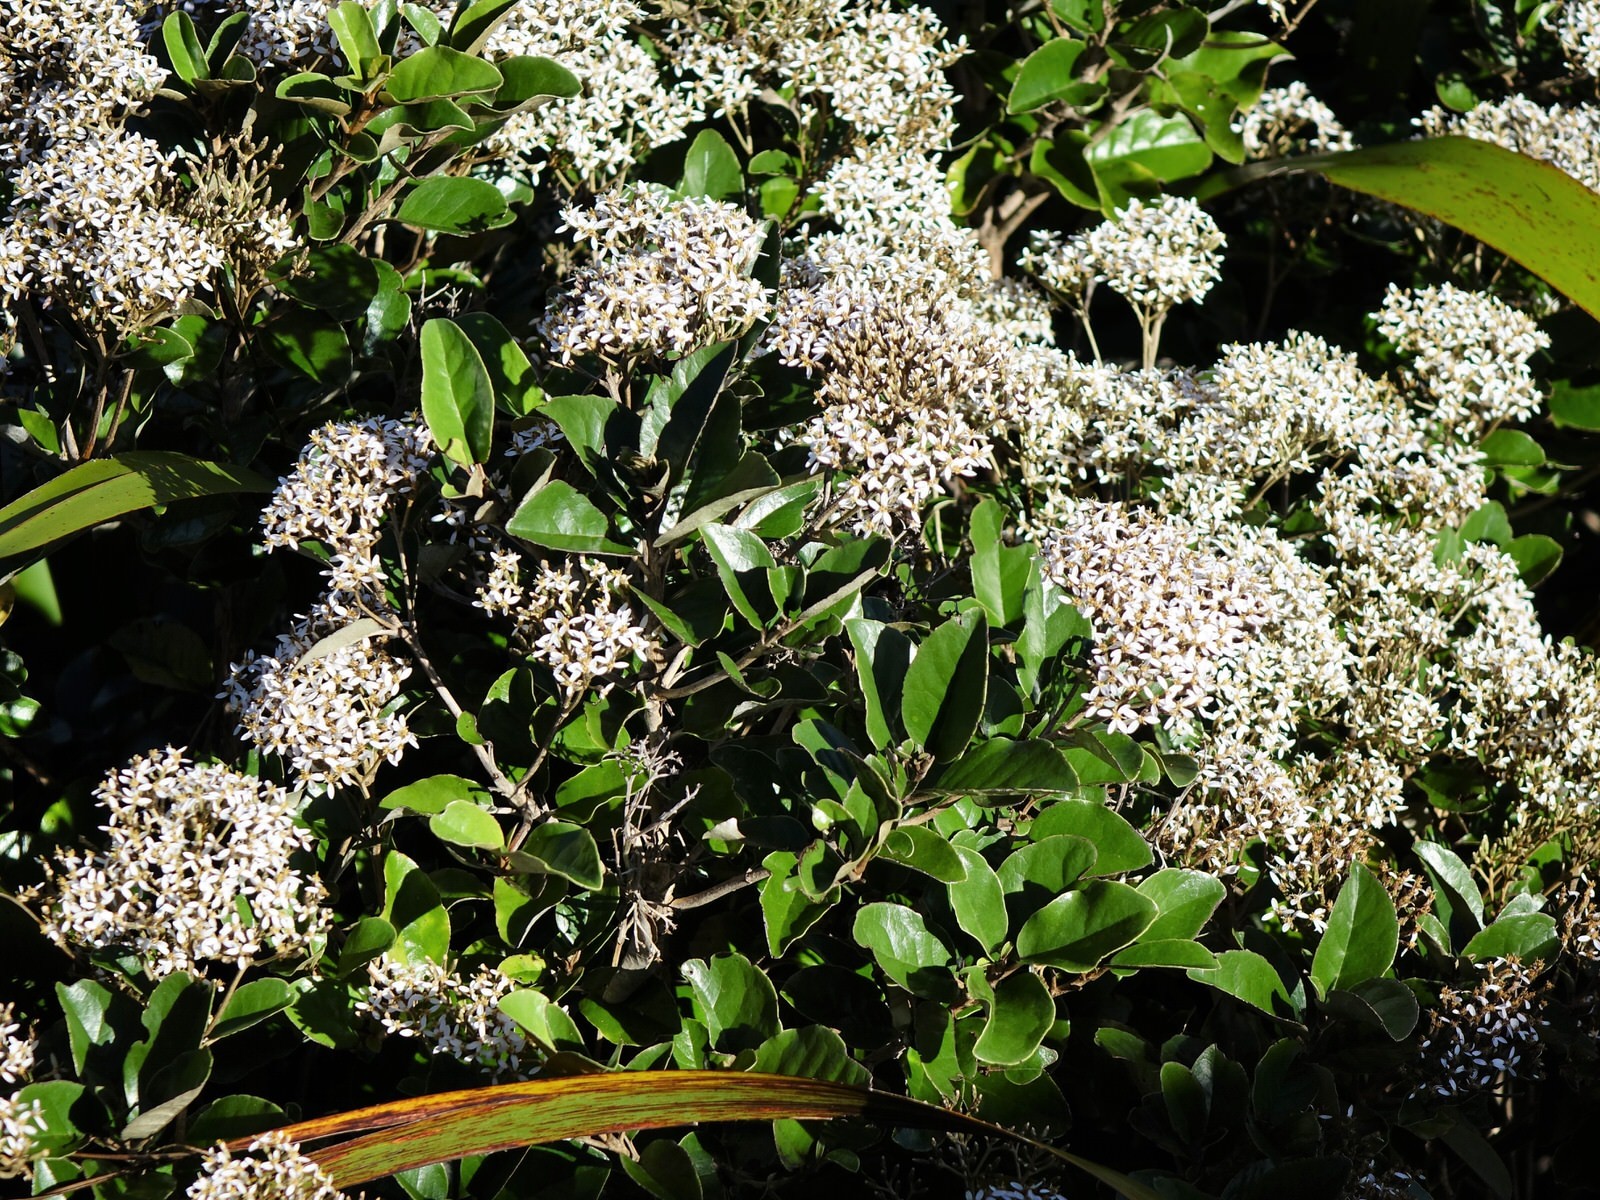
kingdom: Plantae
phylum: Tracheophyta
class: Magnoliopsida
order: Asterales
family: Asteraceae
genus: Olearia
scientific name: Olearia furfuracea
